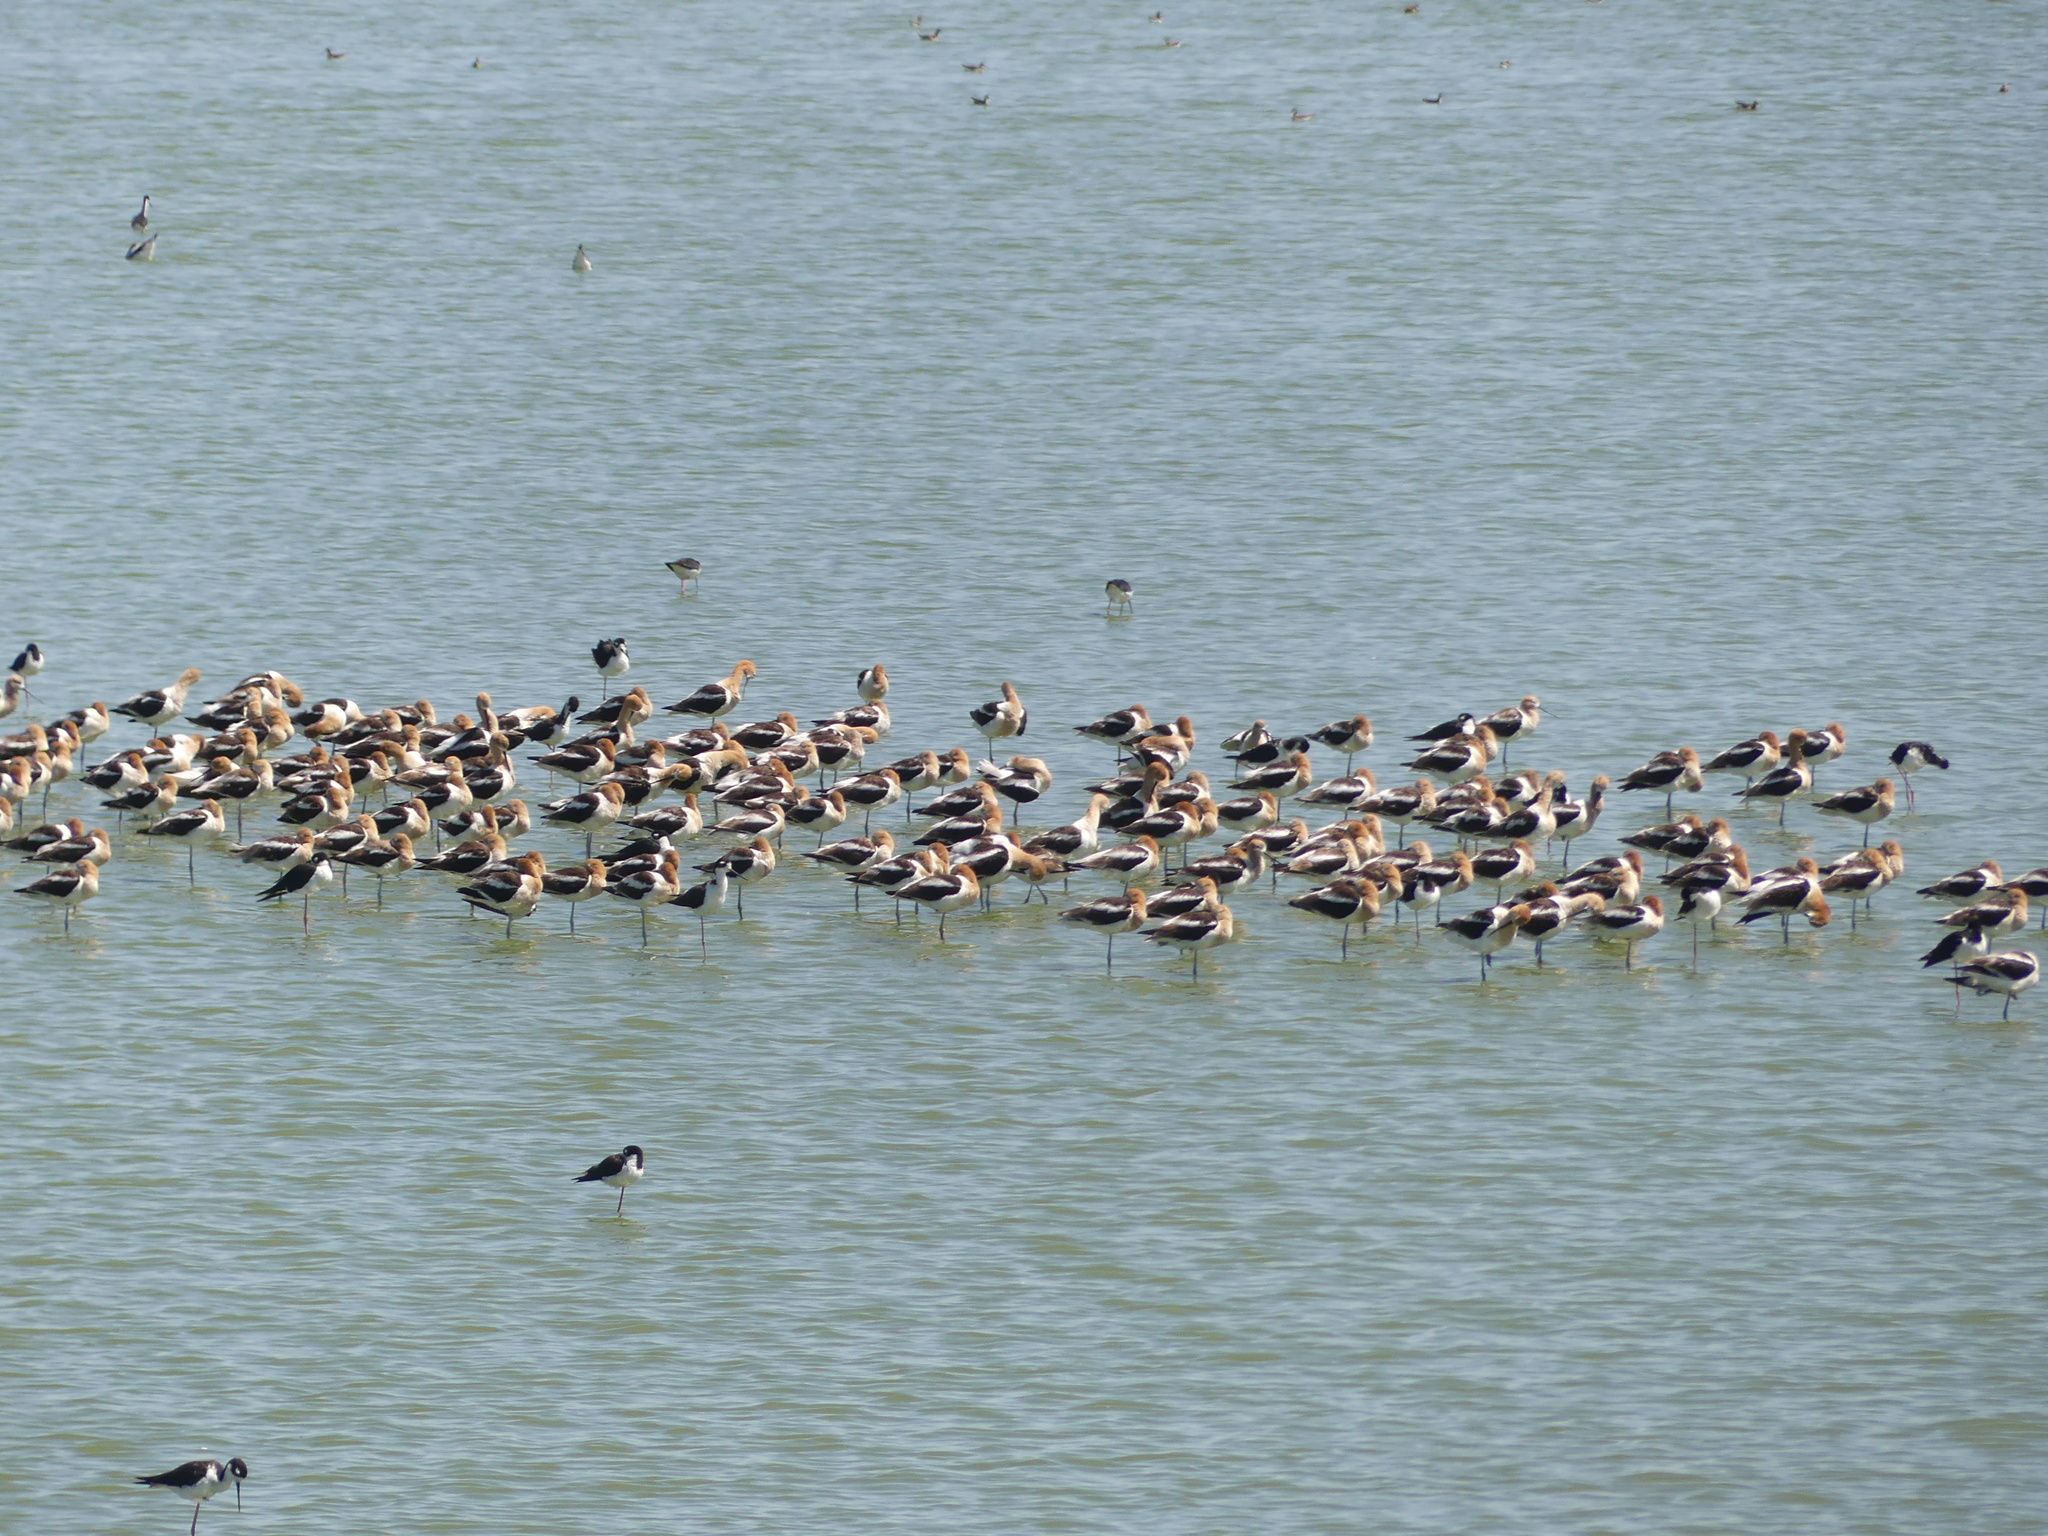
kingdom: Animalia
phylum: Chordata
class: Aves
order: Charadriiformes
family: Recurvirostridae
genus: Recurvirostra
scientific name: Recurvirostra americana
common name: American avocet
